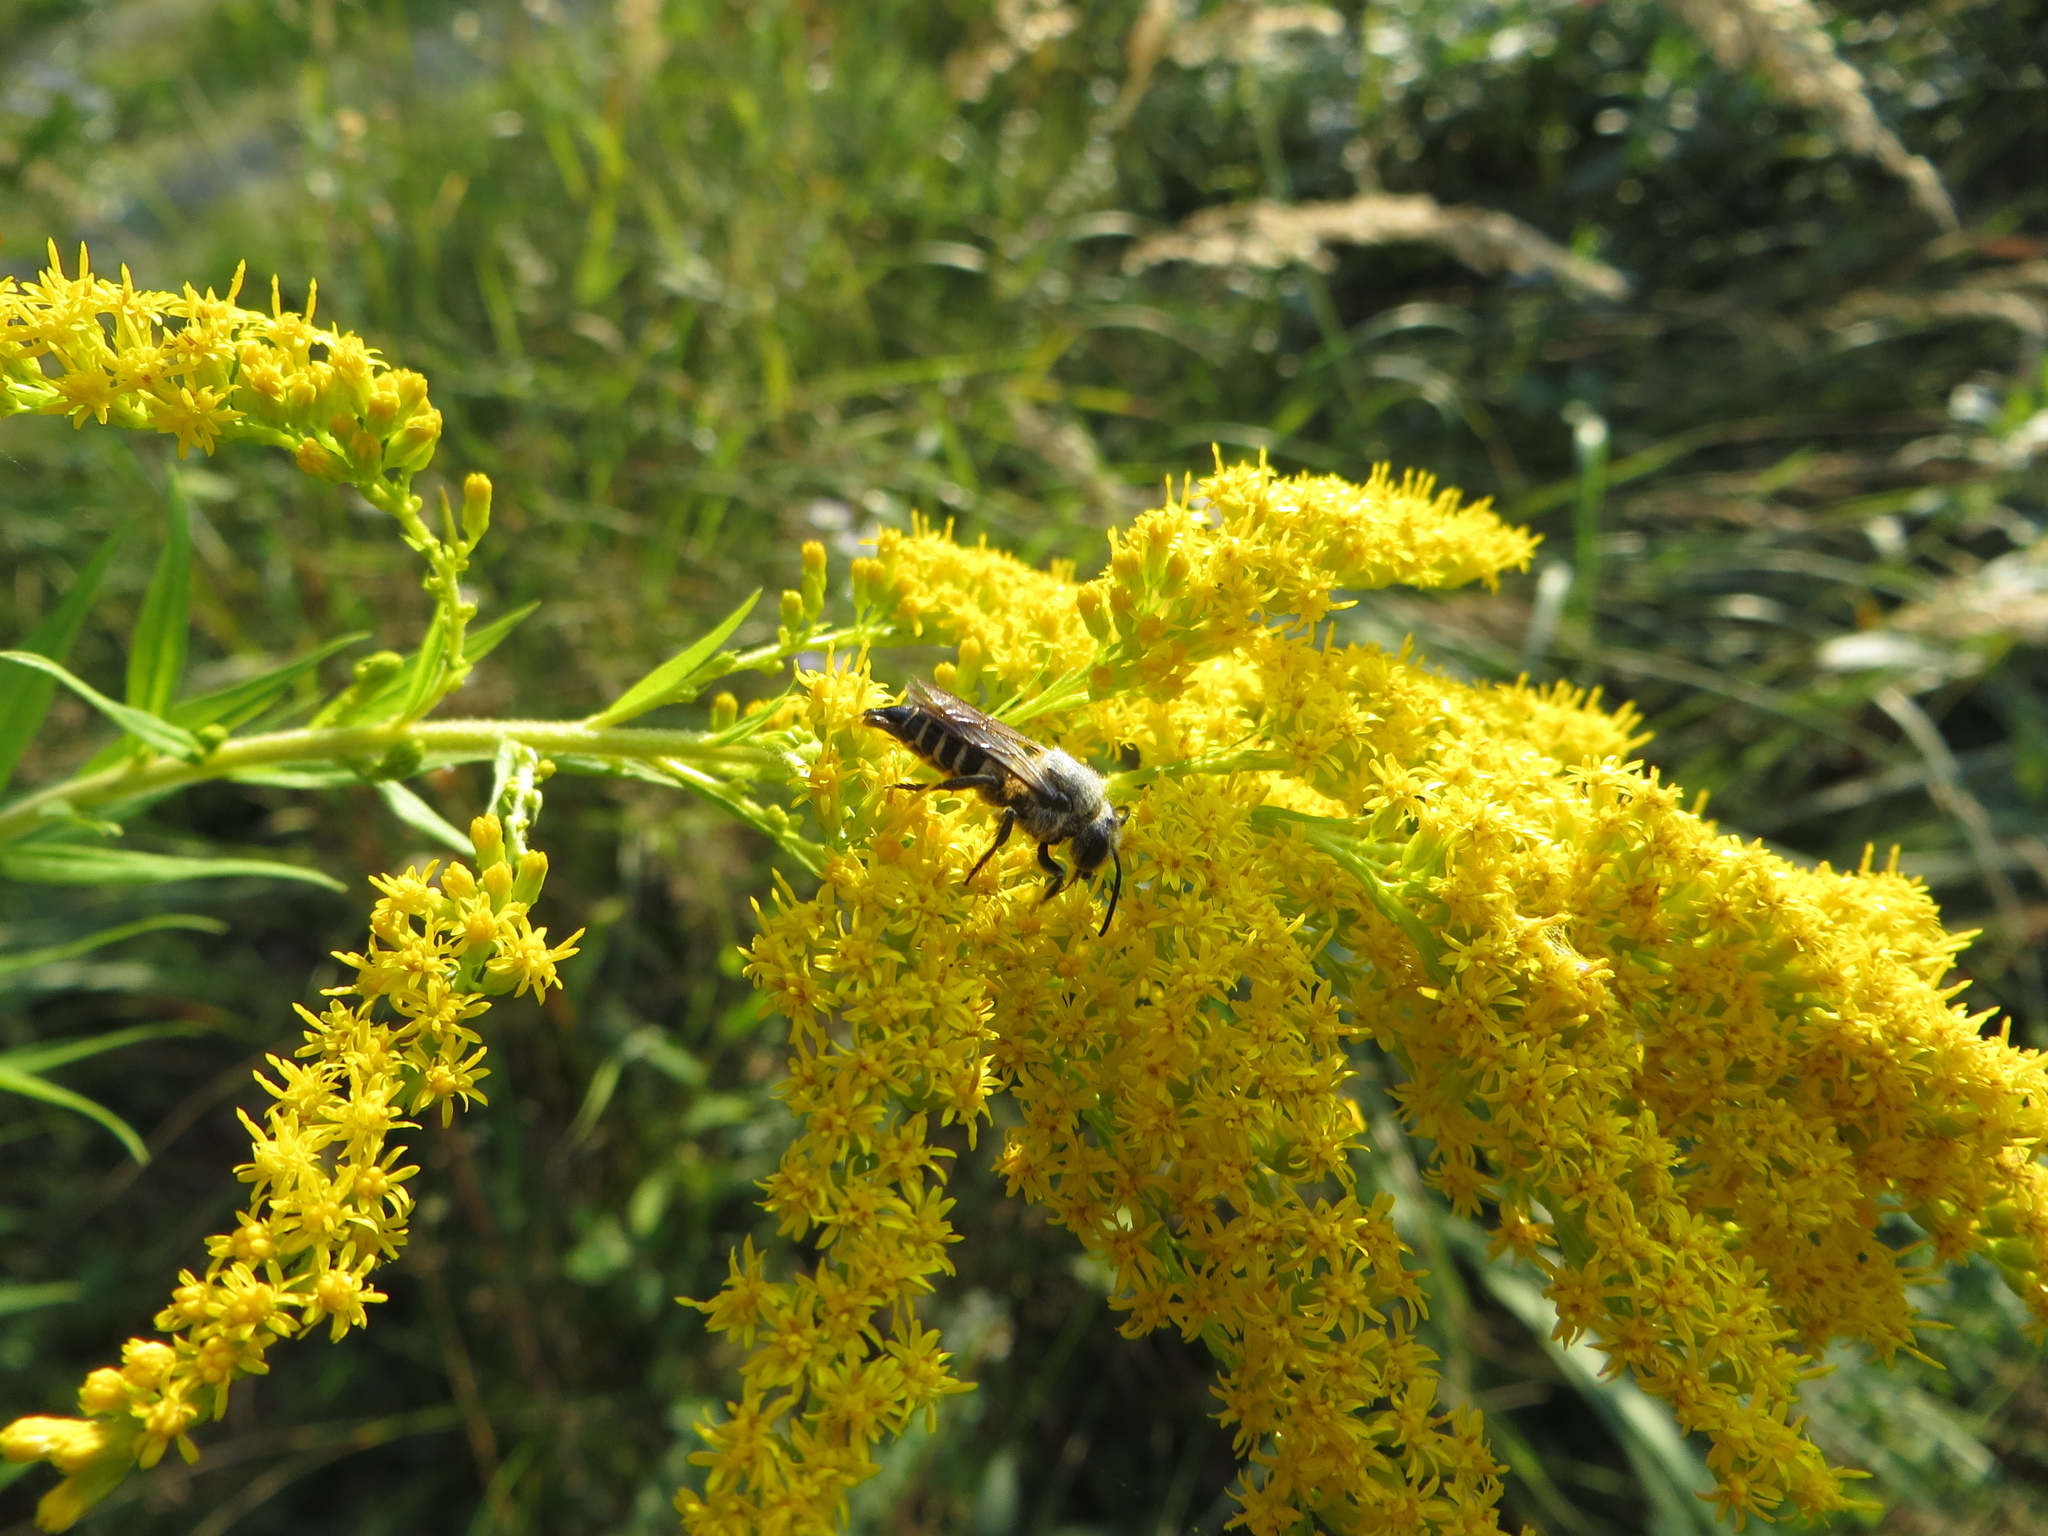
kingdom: Animalia
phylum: Arthropoda
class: Insecta
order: Hymenoptera
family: Megachilidae
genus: Coelioxys
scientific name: Coelioxys alatus
